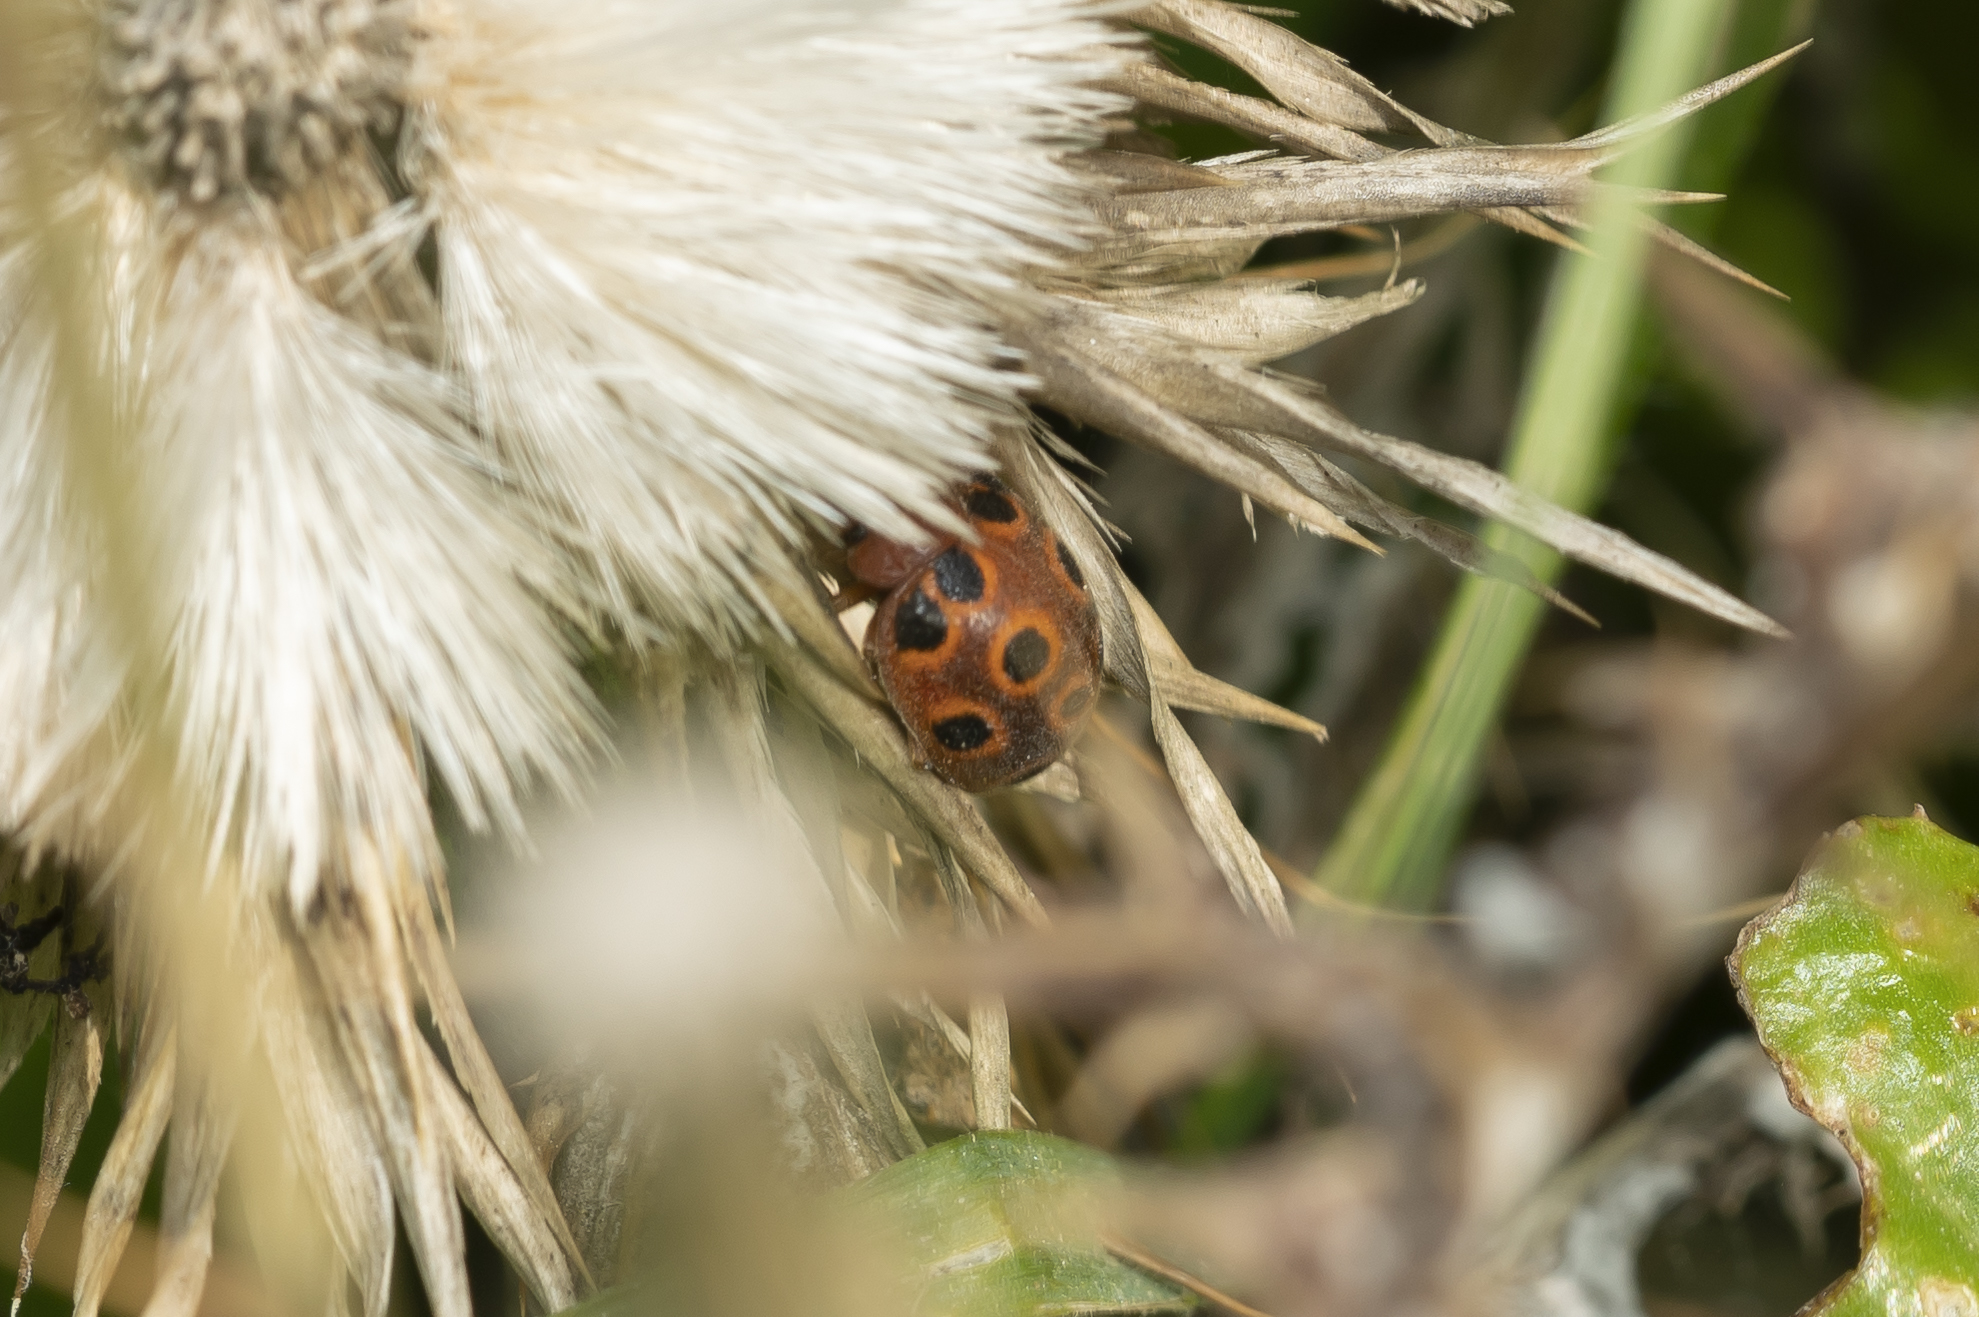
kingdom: Animalia
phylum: Arthropoda
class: Insecta
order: Coleoptera
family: Coccinellidae
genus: Chnootriba
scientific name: Chnootriba elaterii
